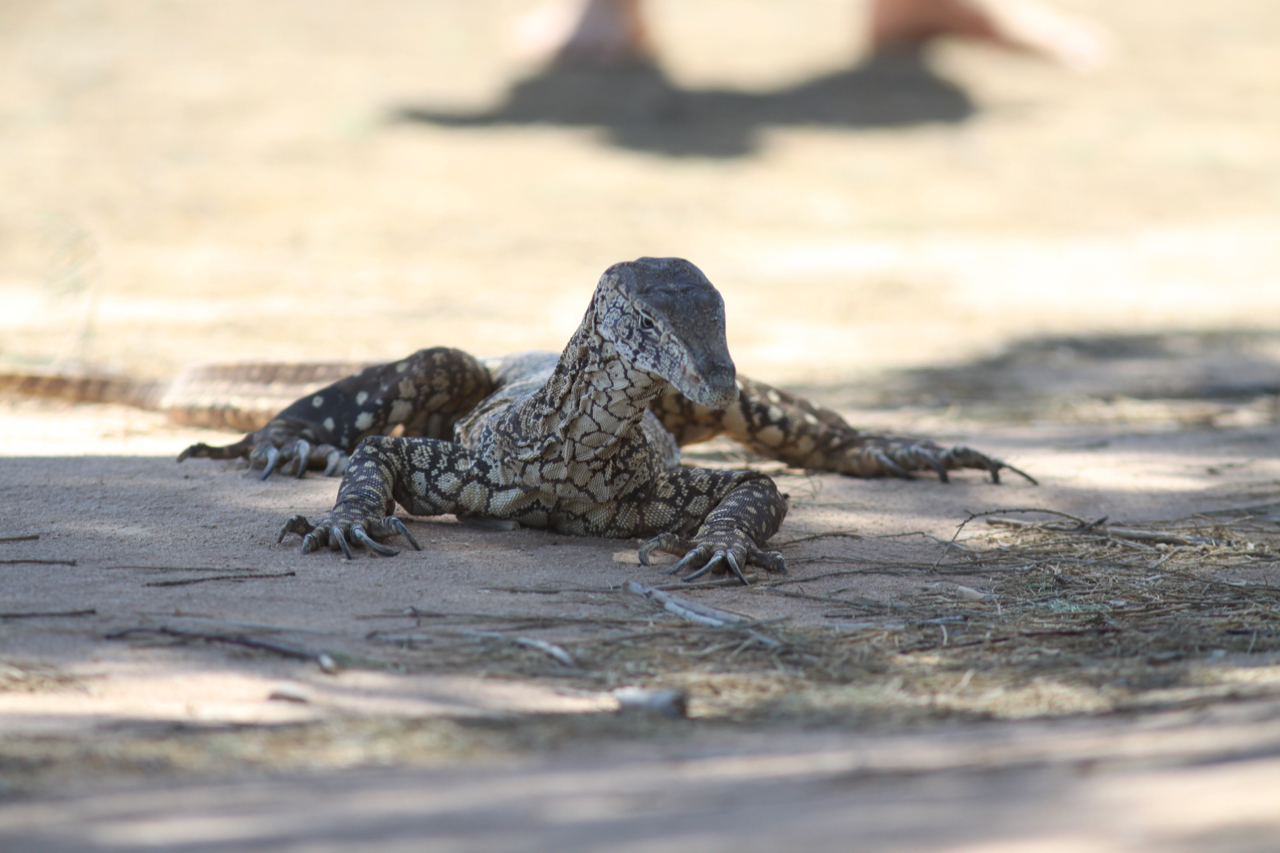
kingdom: Animalia
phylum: Chordata
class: Squamata
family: Varanidae
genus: Varanus
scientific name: Varanus giganteus
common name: Perentie
